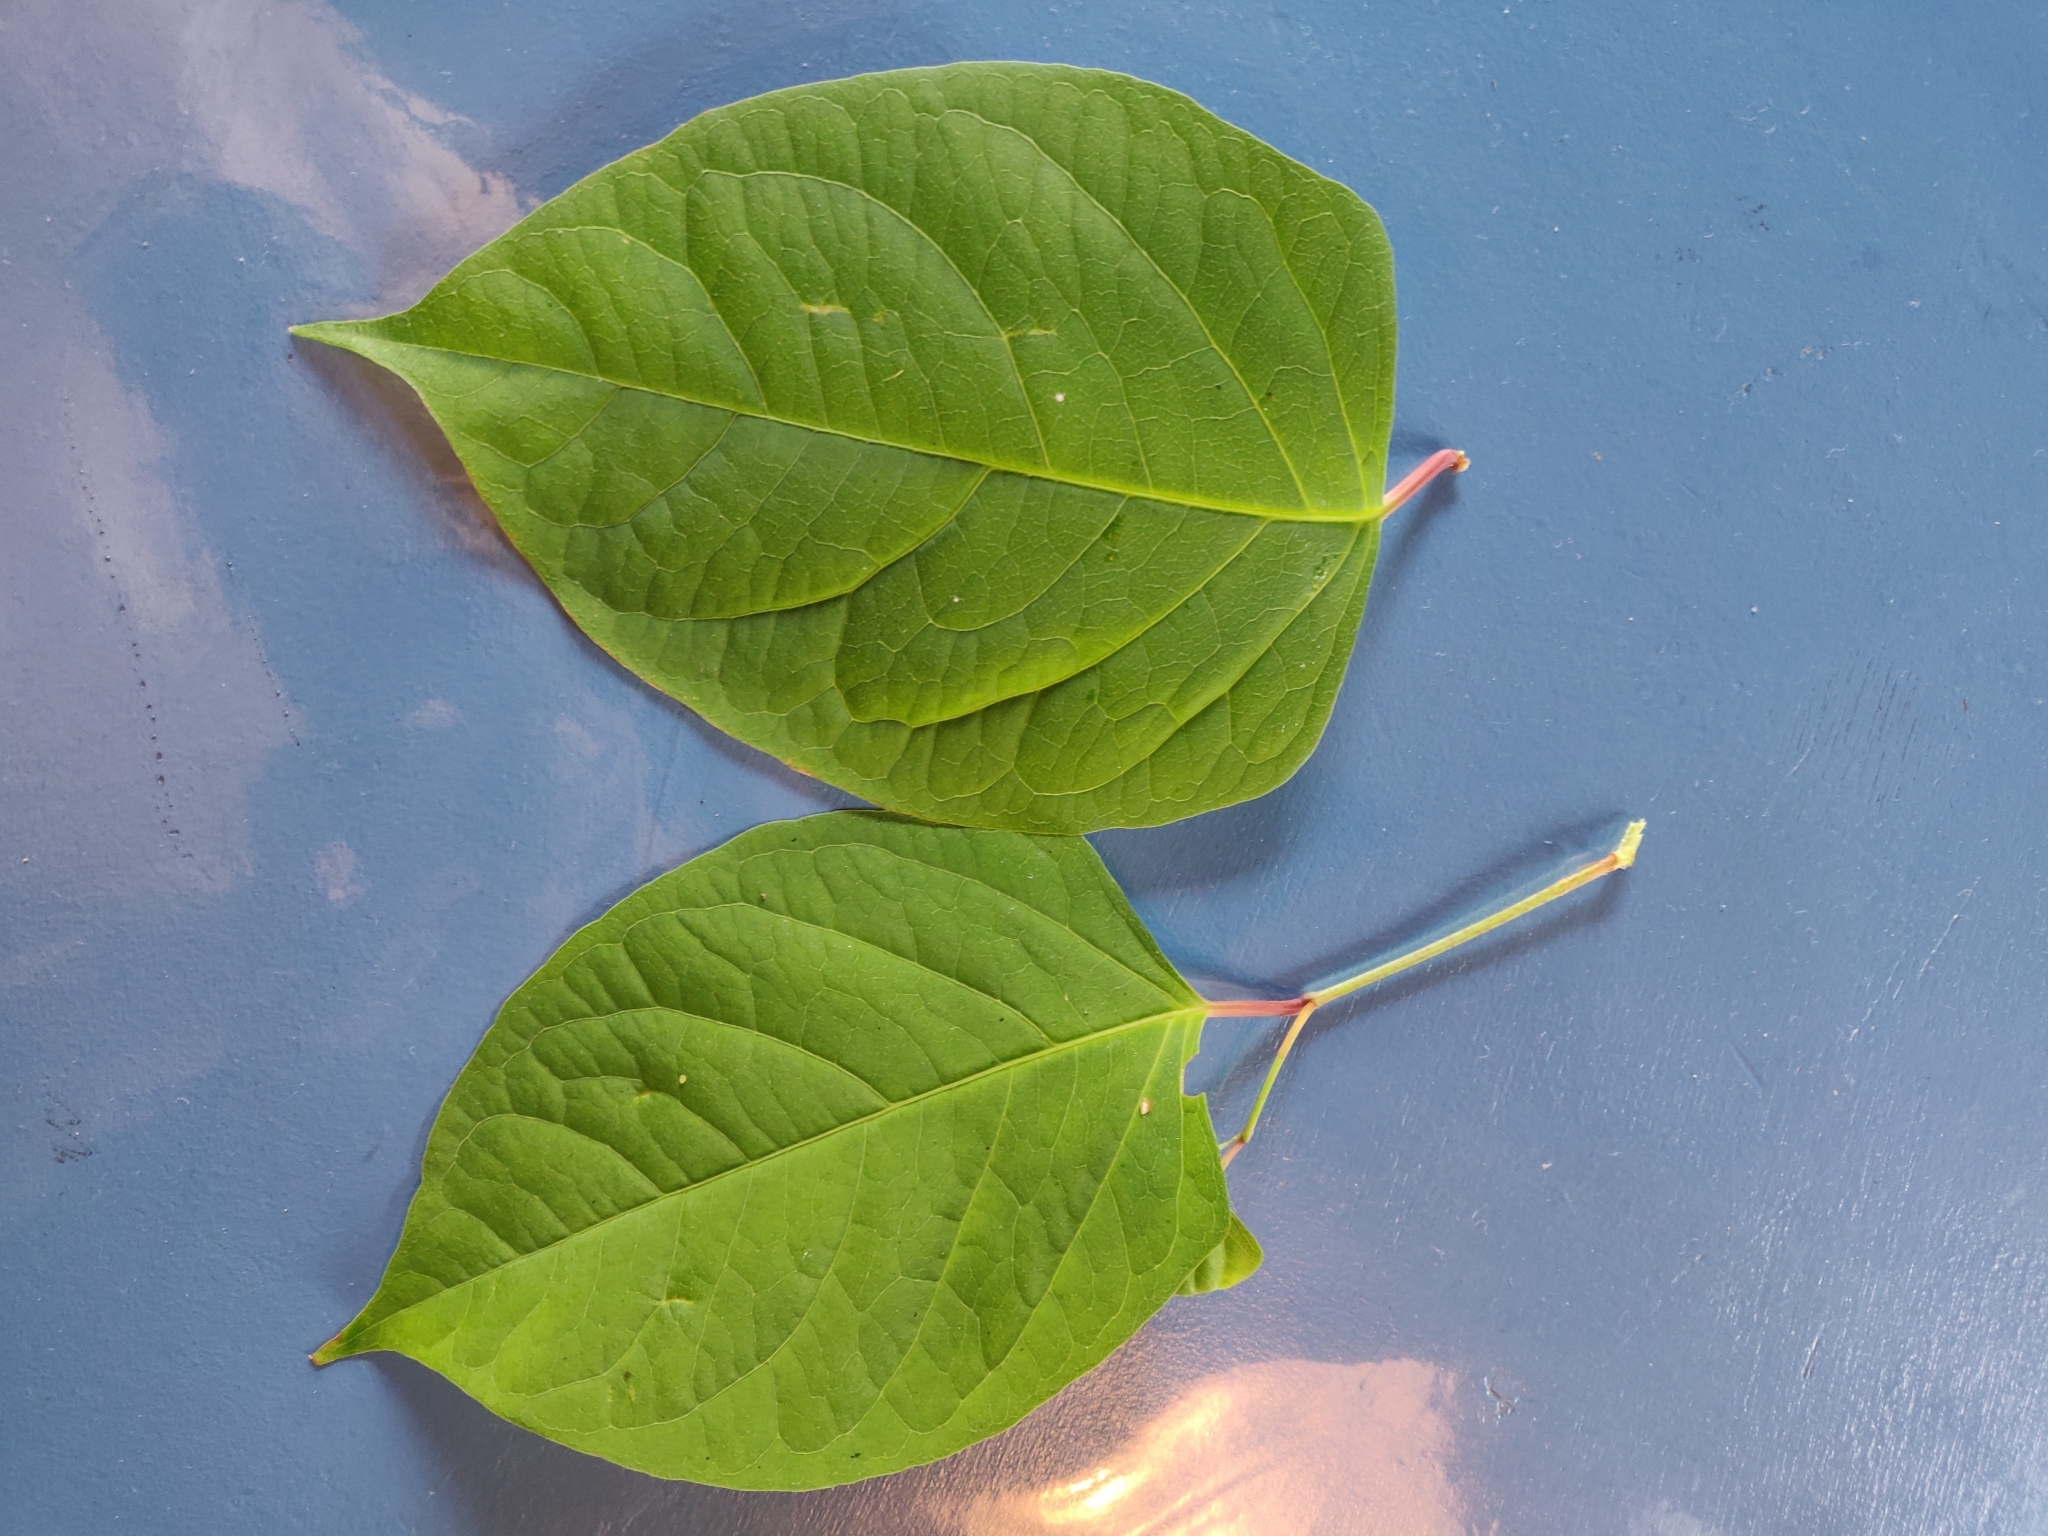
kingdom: Plantae
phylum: Tracheophyta
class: Magnoliopsida
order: Caryophyllales
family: Polygonaceae
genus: Reynoutria
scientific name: Reynoutria japonica
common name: Japanese knotweed
